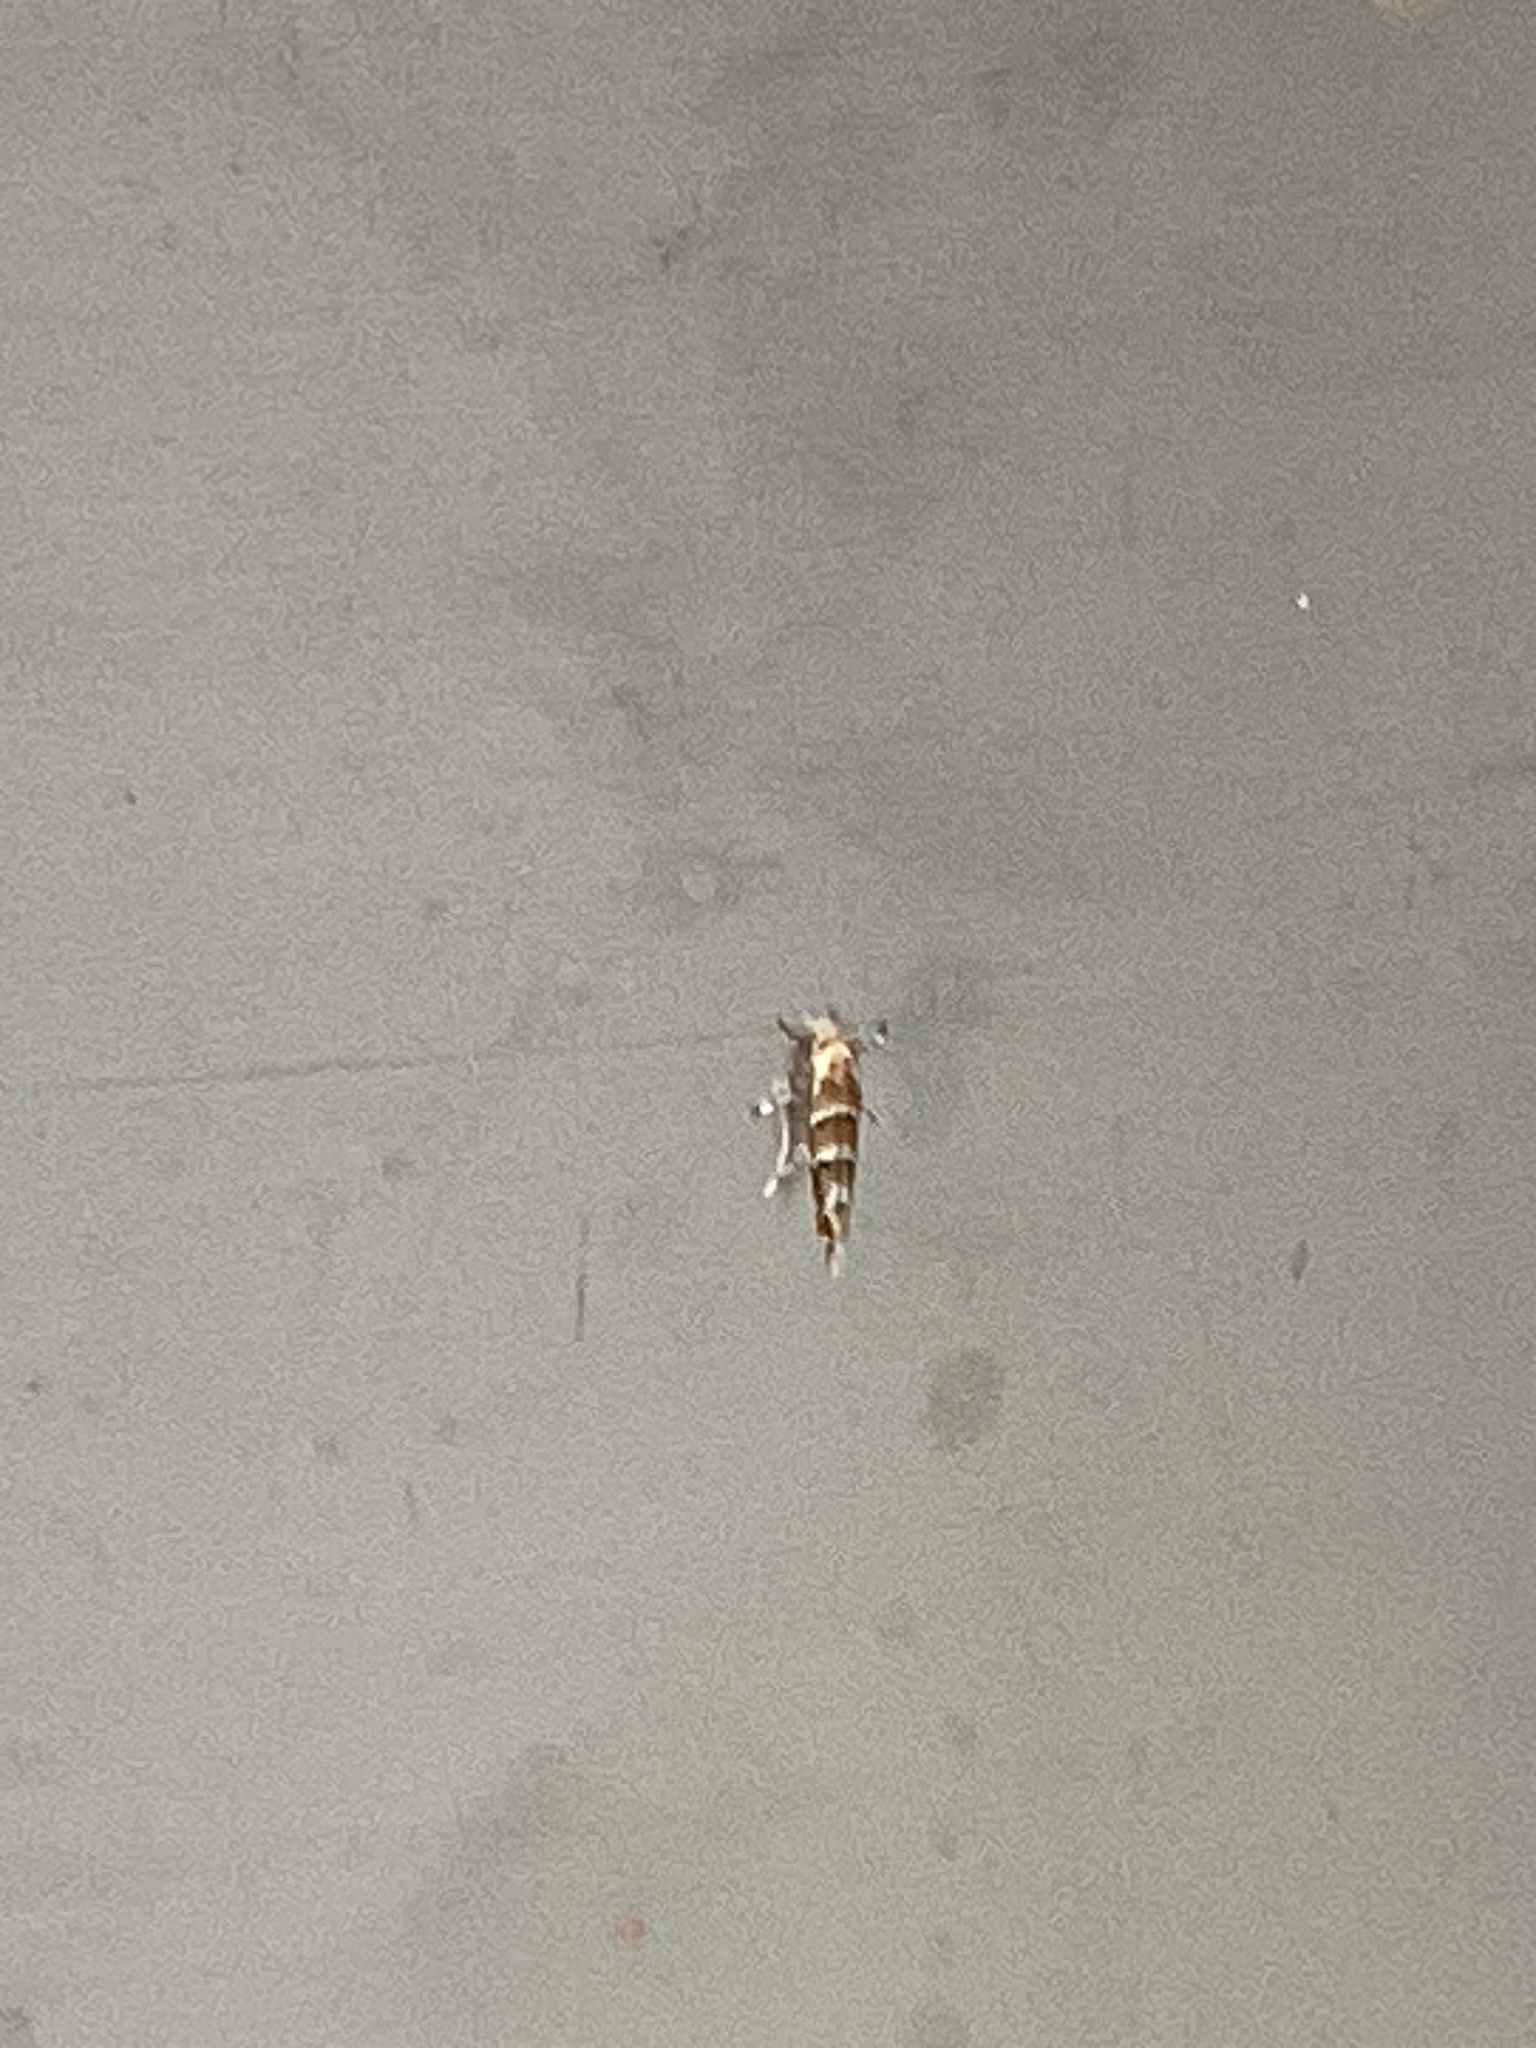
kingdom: Animalia
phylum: Arthropoda
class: Insecta
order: Lepidoptera
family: Gracillariidae
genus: Cameraria
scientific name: Cameraria ohridella
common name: Horse-chestnut leaf-miner
